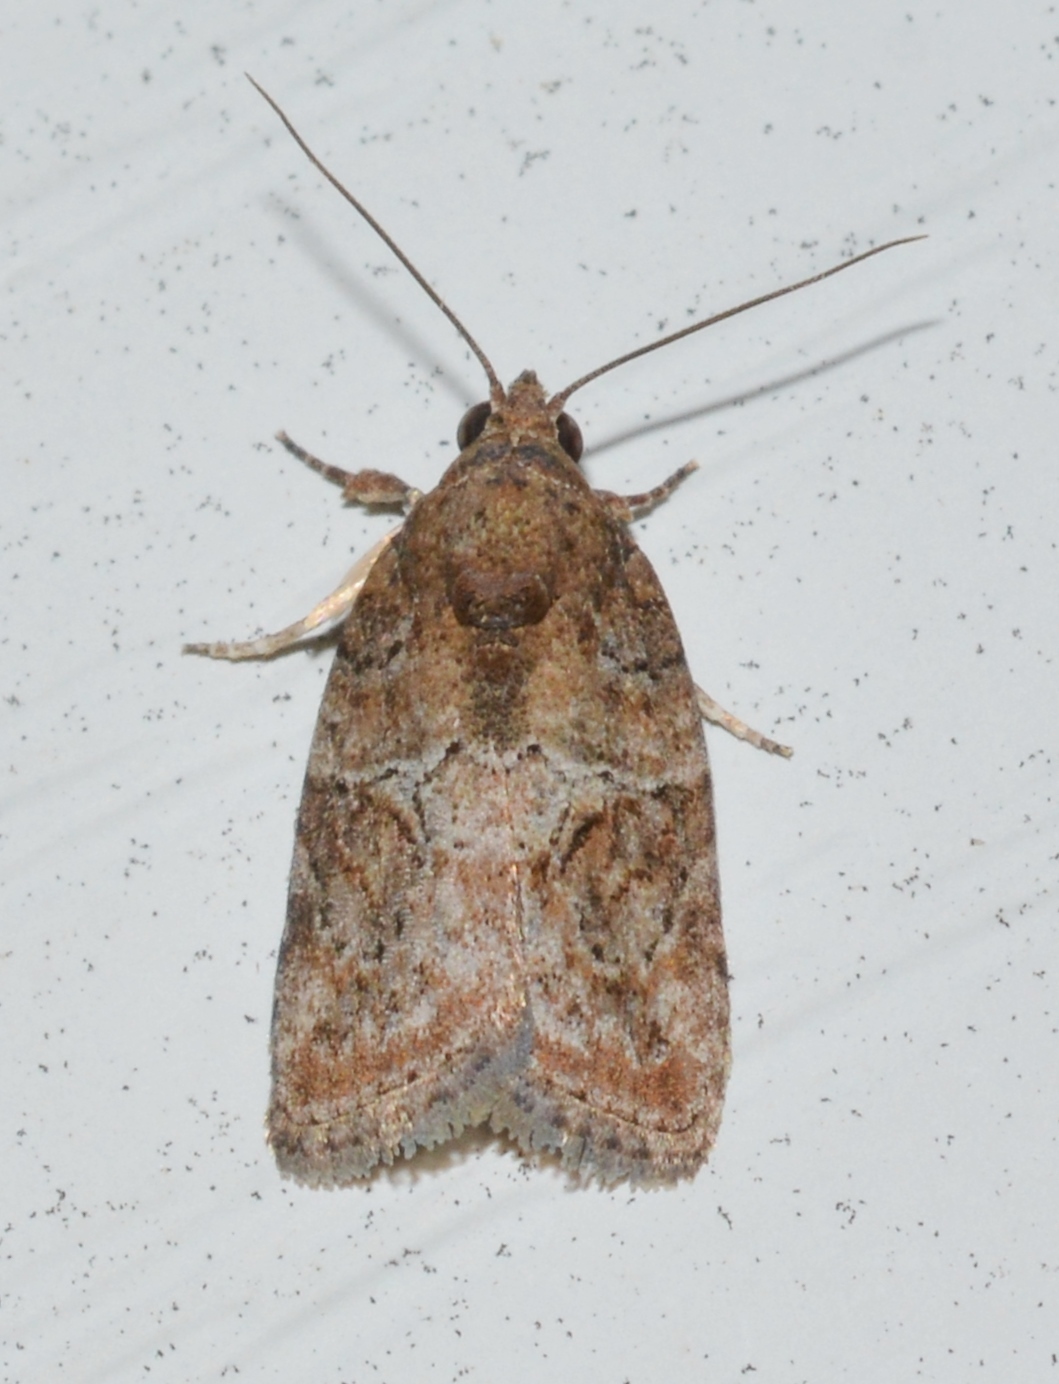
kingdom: Animalia
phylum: Arthropoda
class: Insecta
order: Lepidoptera
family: Nolidae
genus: Garella
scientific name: Garella nilotica
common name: Black-olive caterpillar moth
